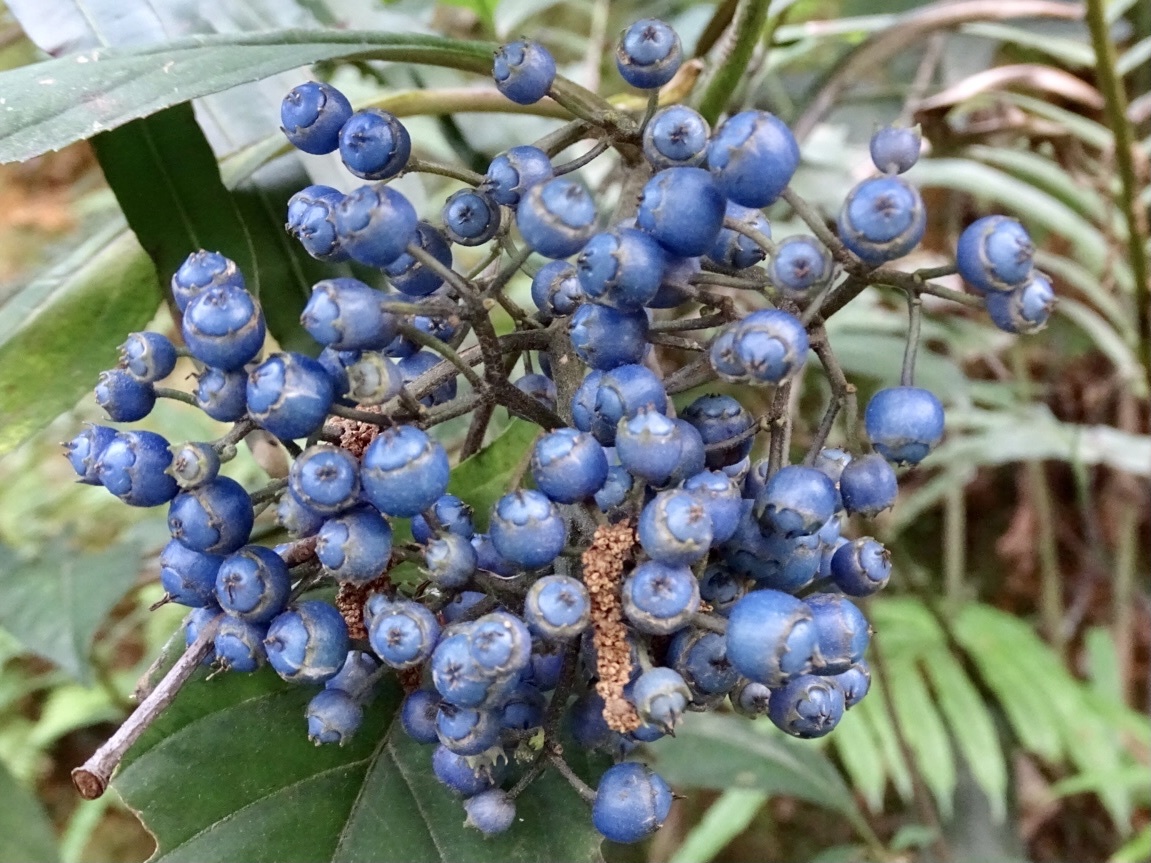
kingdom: Plantae
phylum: Tracheophyta
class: Magnoliopsida
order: Cornales
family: Hydrangeaceae
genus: Hydrangea
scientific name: Hydrangea febrifuga
